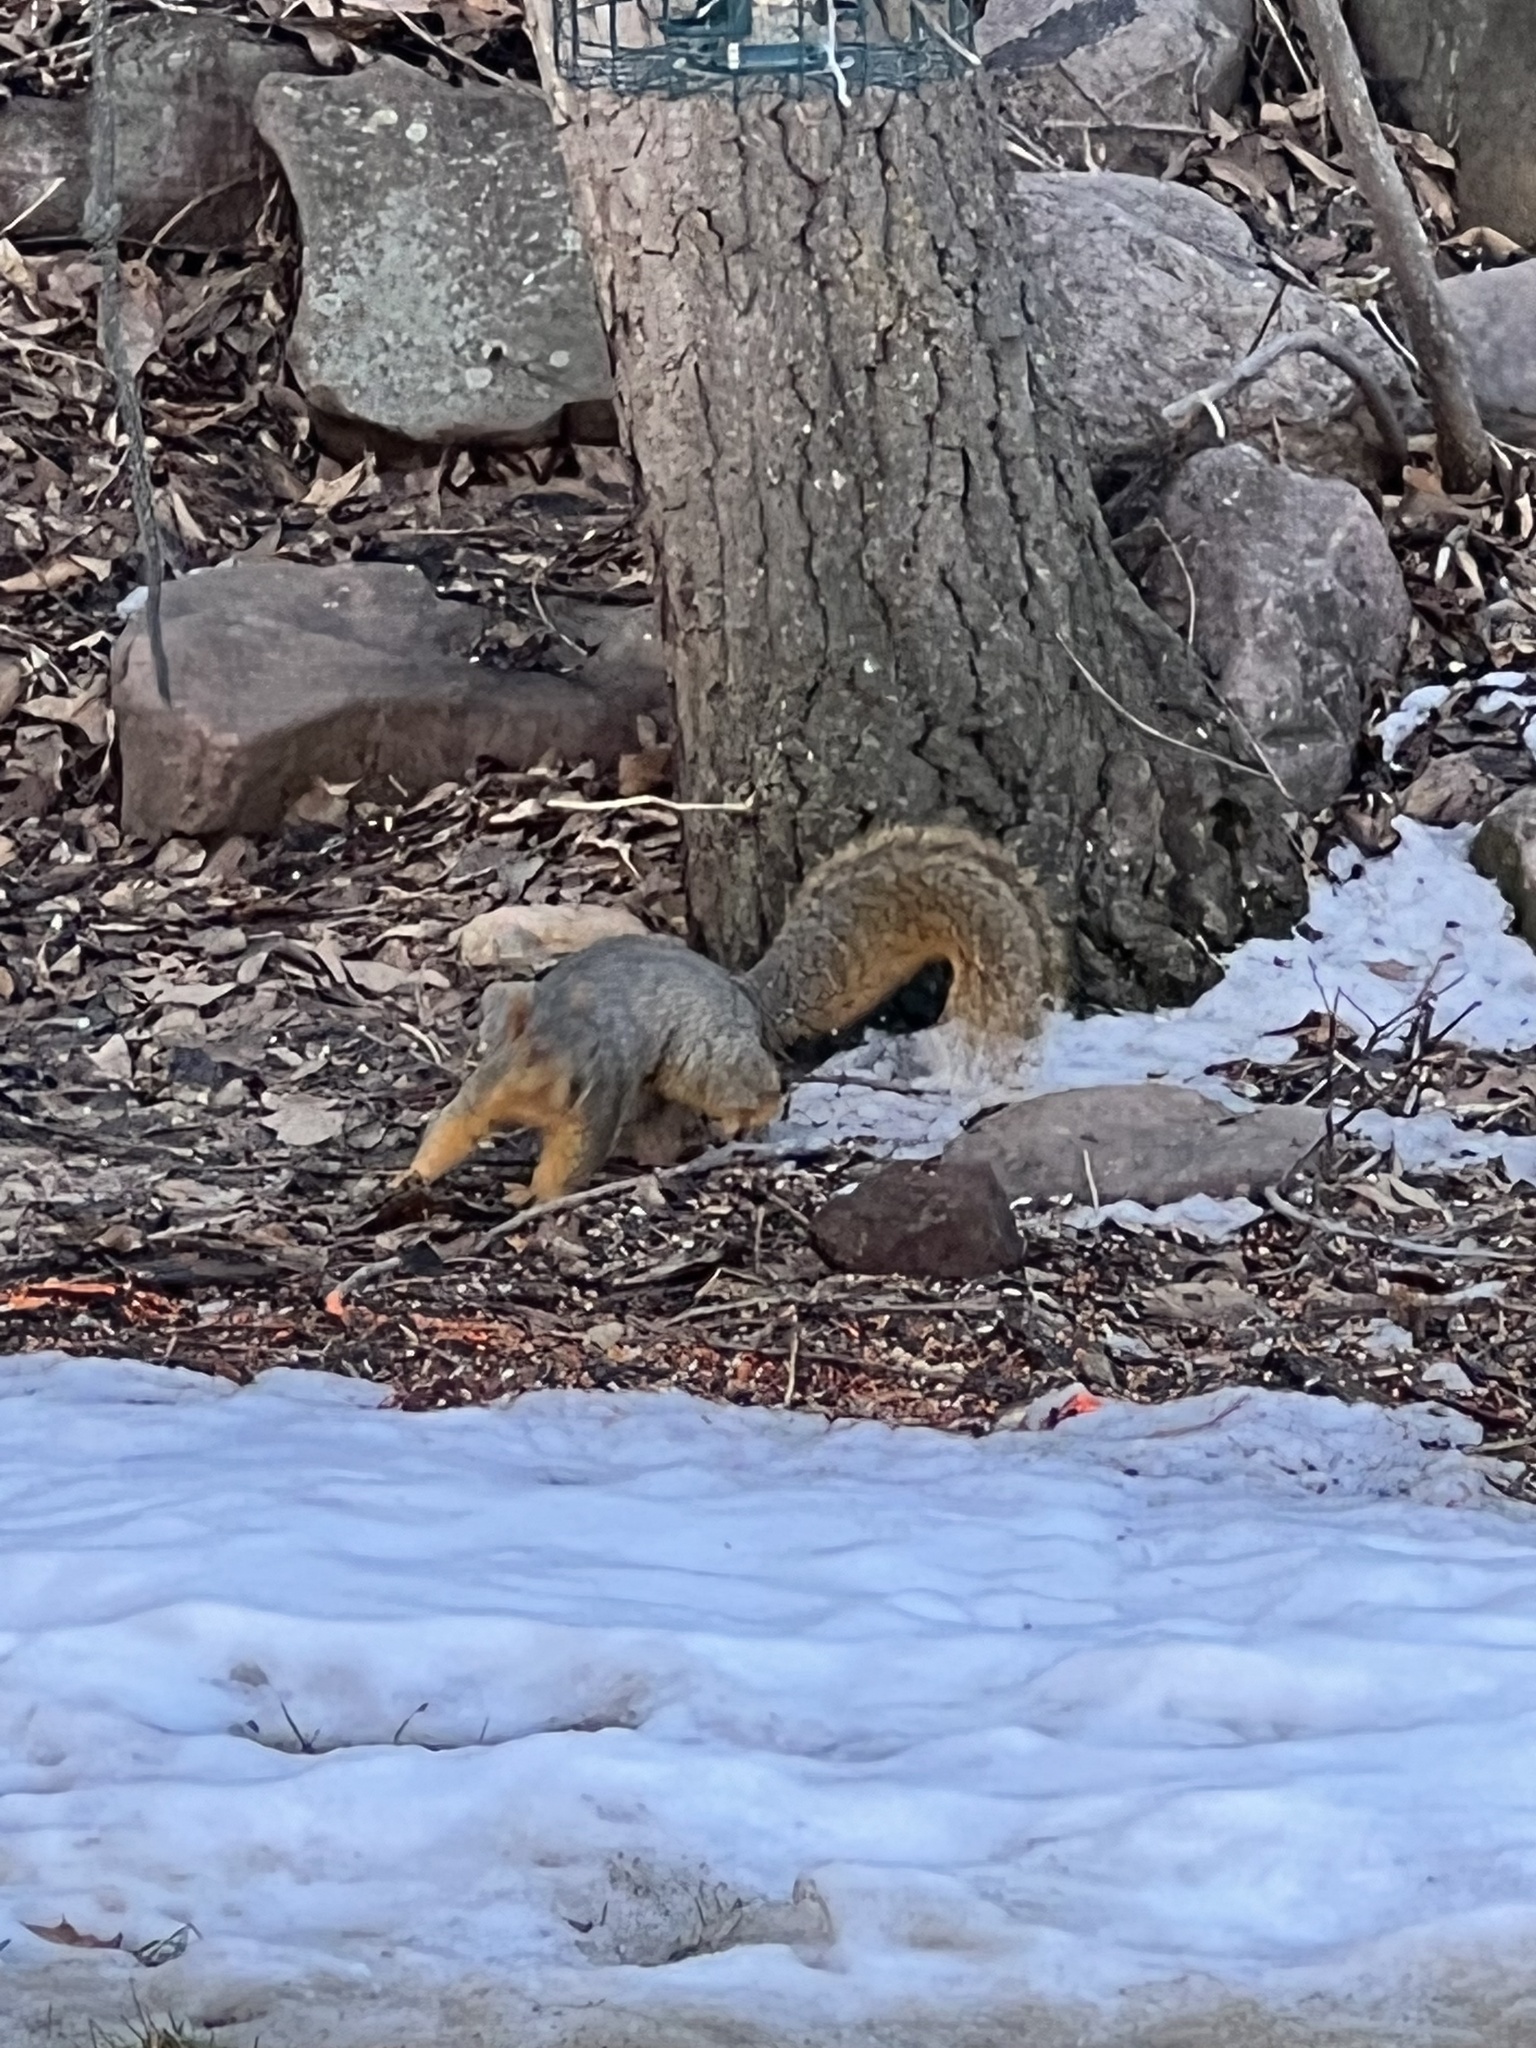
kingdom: Animalia
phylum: Chordata
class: Mammalia
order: Rodentia
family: Sciuridae
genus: Sciurus
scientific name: Sciurus niger
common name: Fox squirrel
